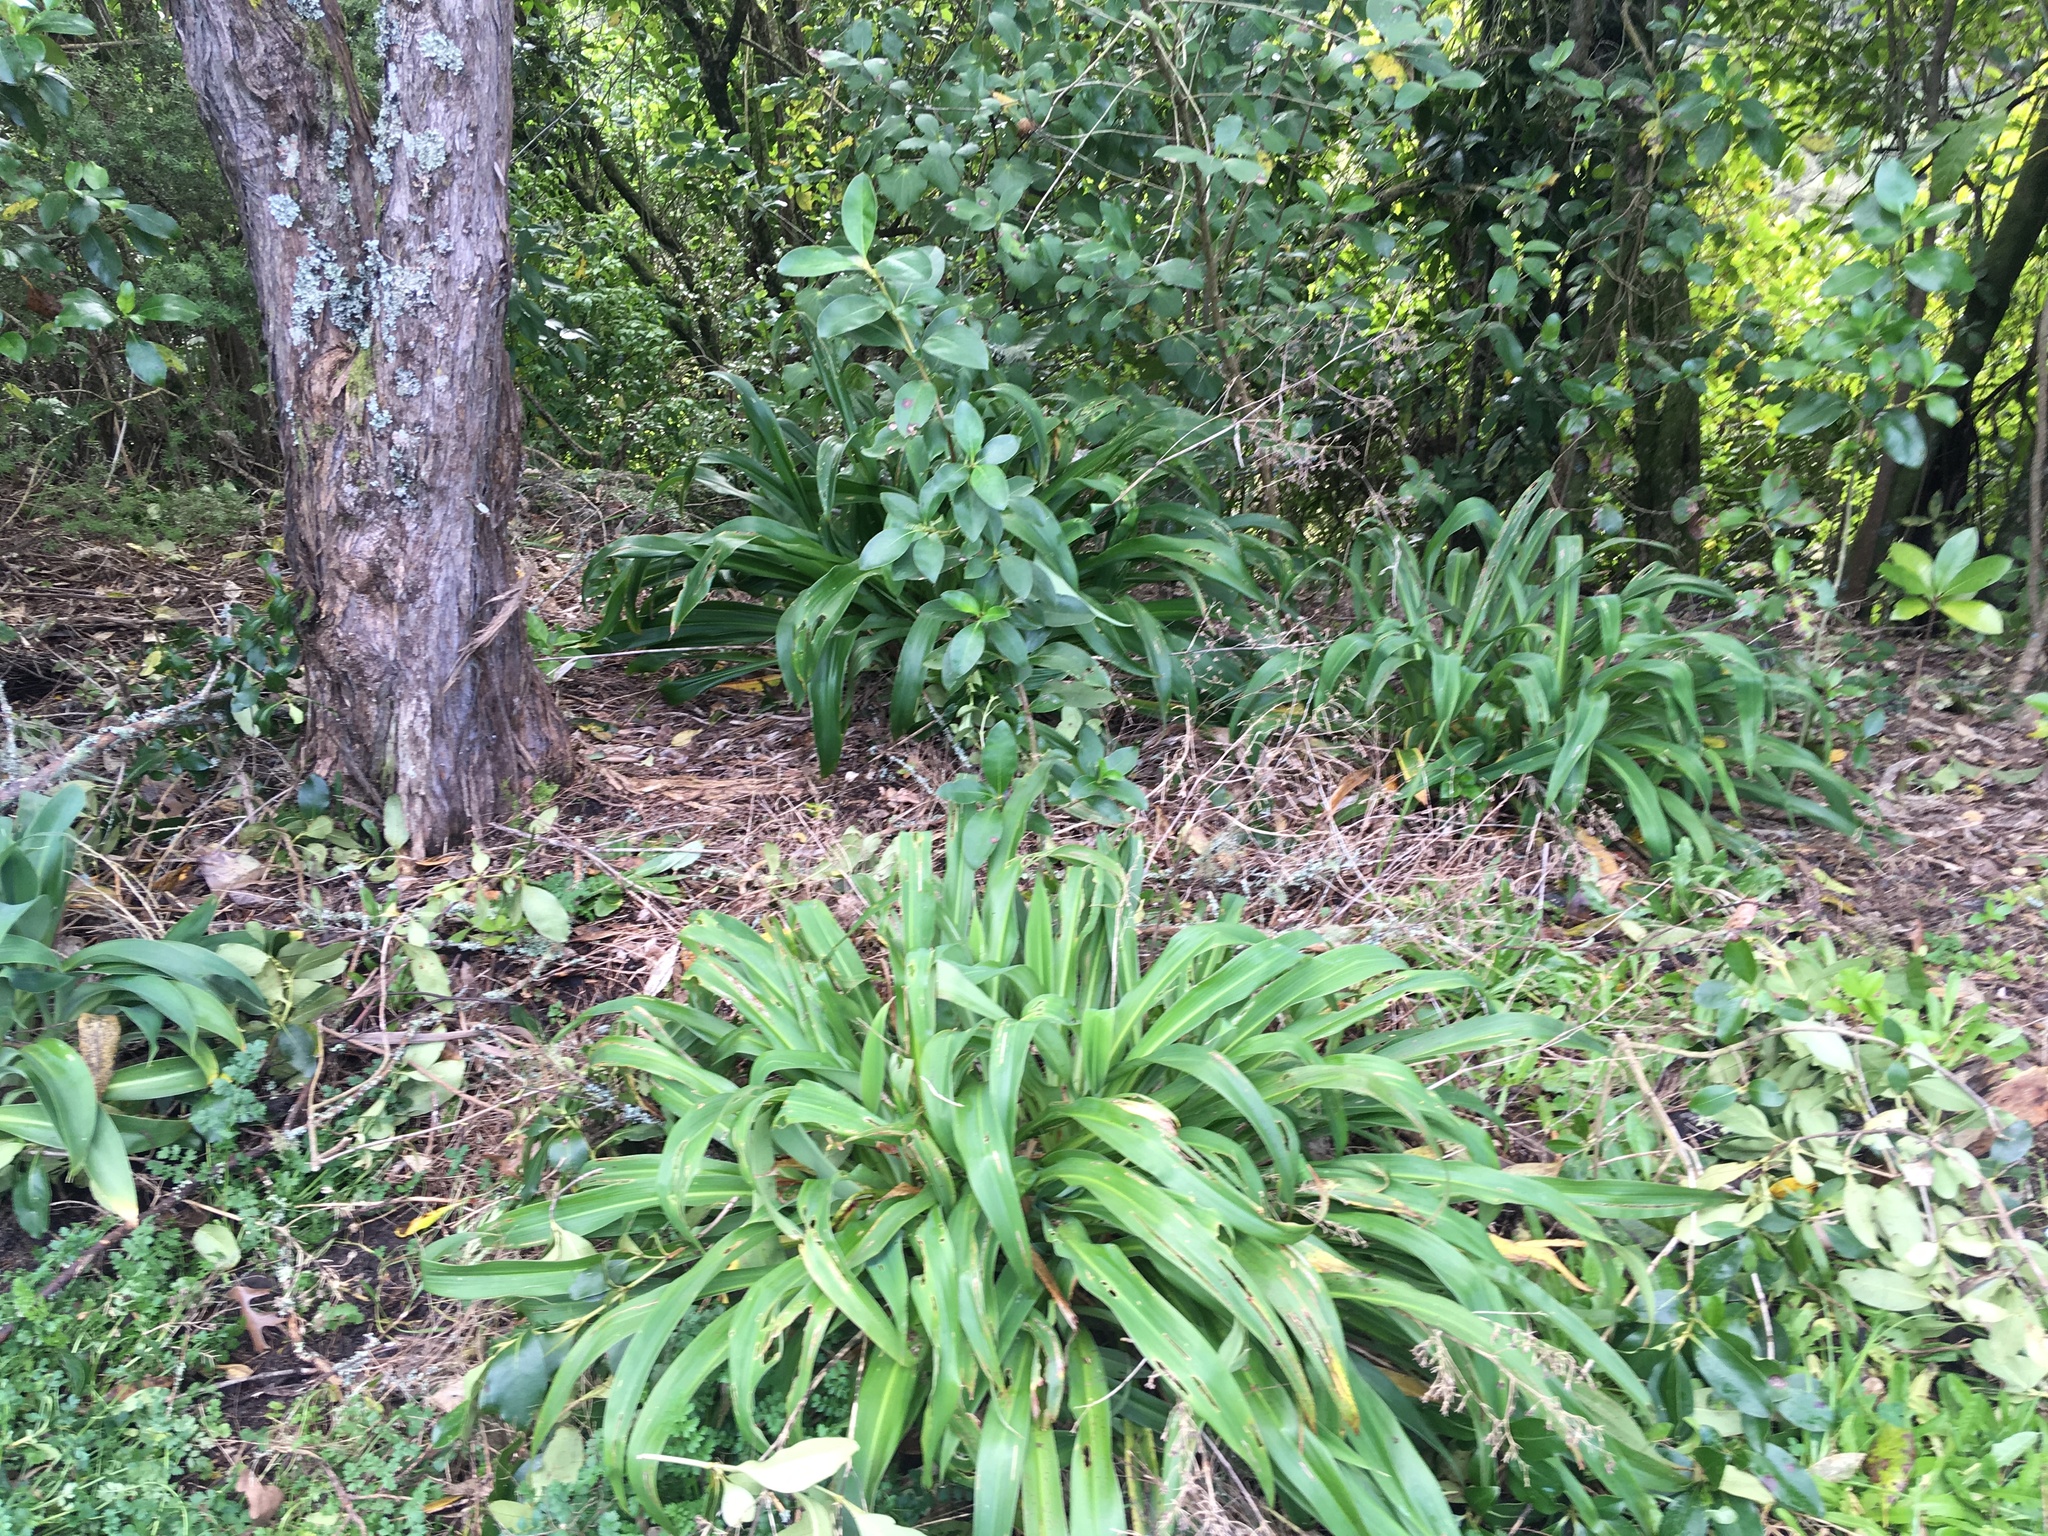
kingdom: Plantae
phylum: Tracheophyta
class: Liliopsida
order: Asparagales
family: Asparagaceae
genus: Arthropodium
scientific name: Arthropodium cirratum
